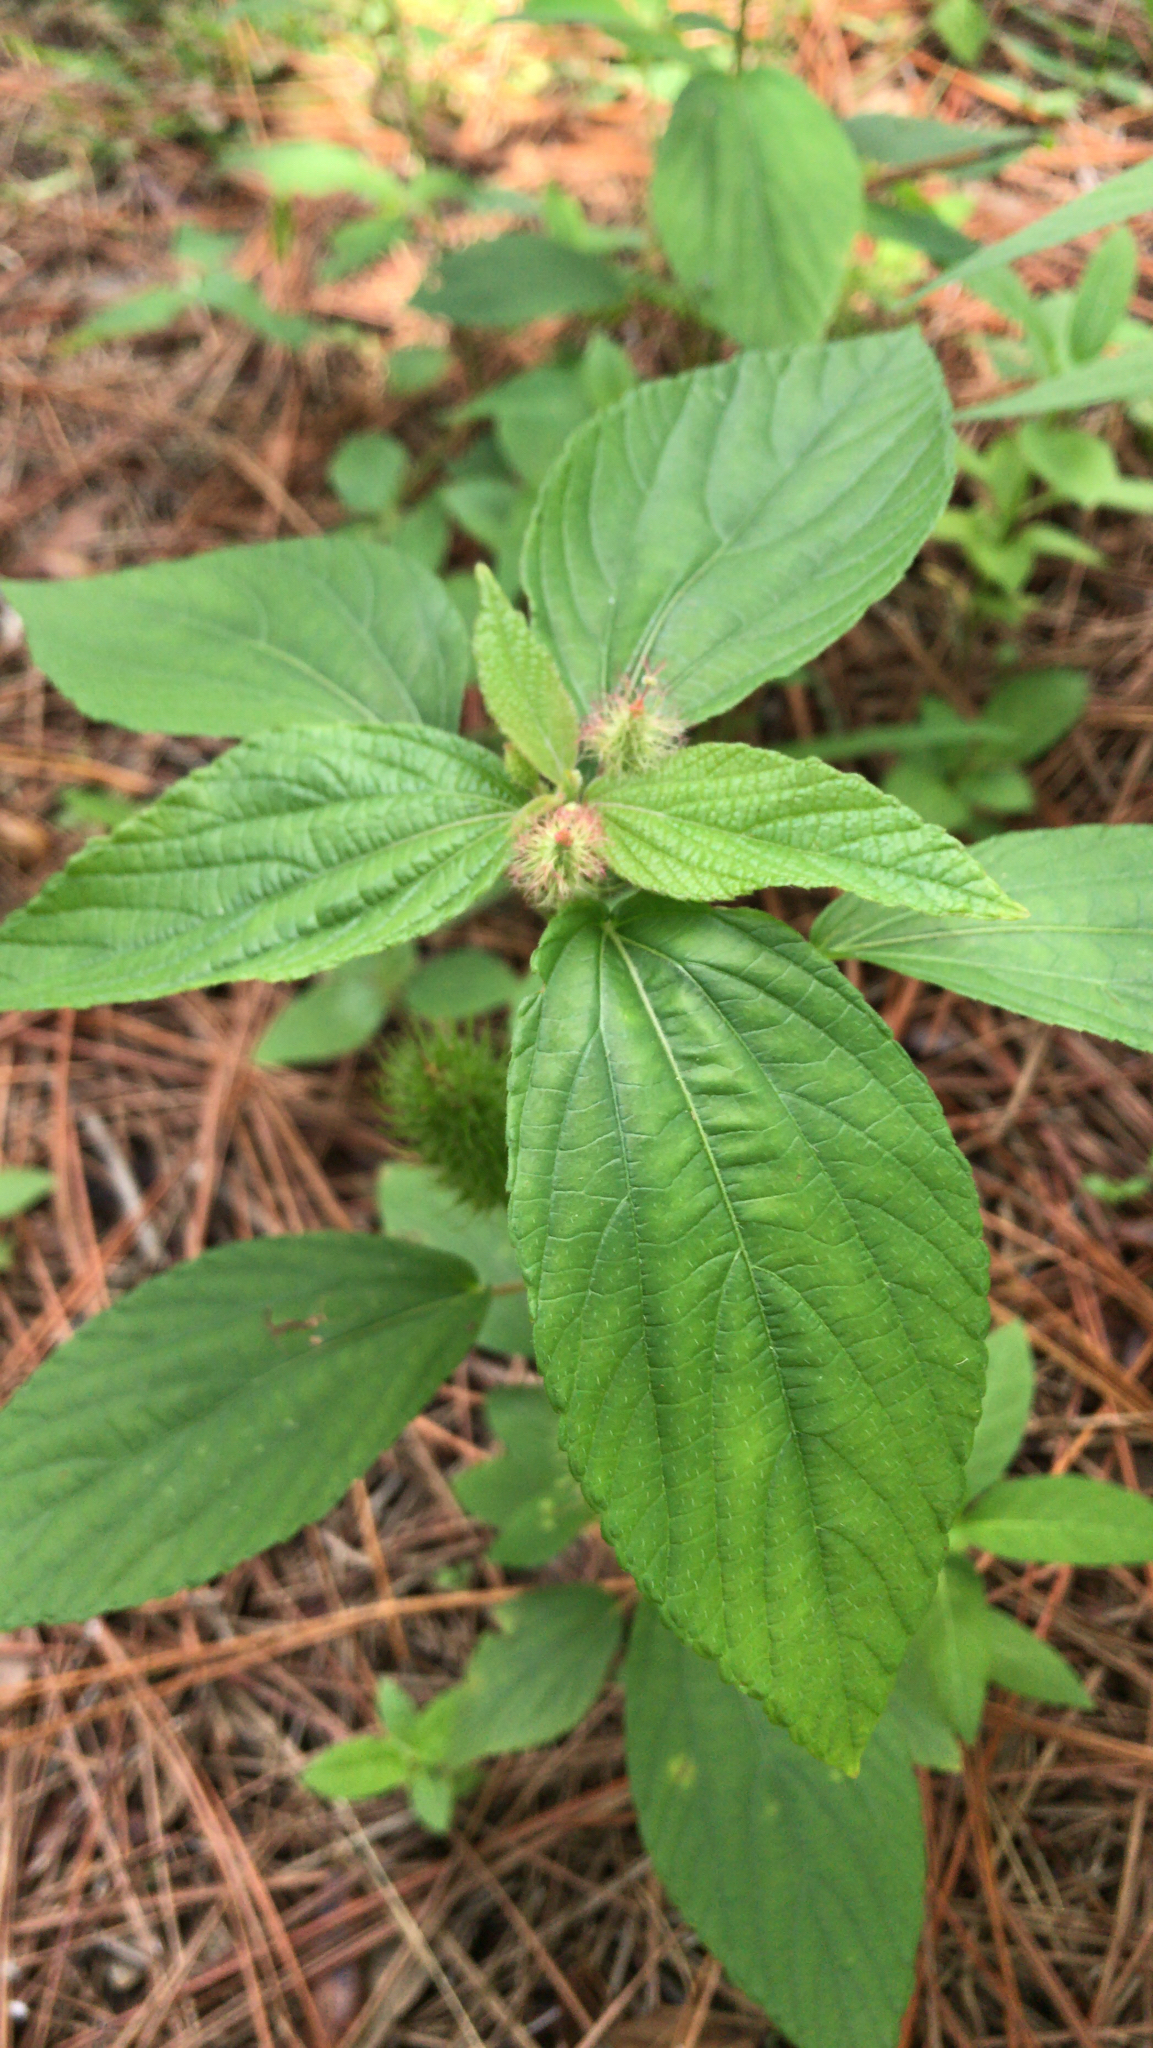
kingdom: Plantae
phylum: Tracheophyta
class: Magnoliopsida
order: Malpighiales
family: Euphorbiaceae
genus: Acalypha
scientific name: Acalypha arvensis
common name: Field copperleaf
